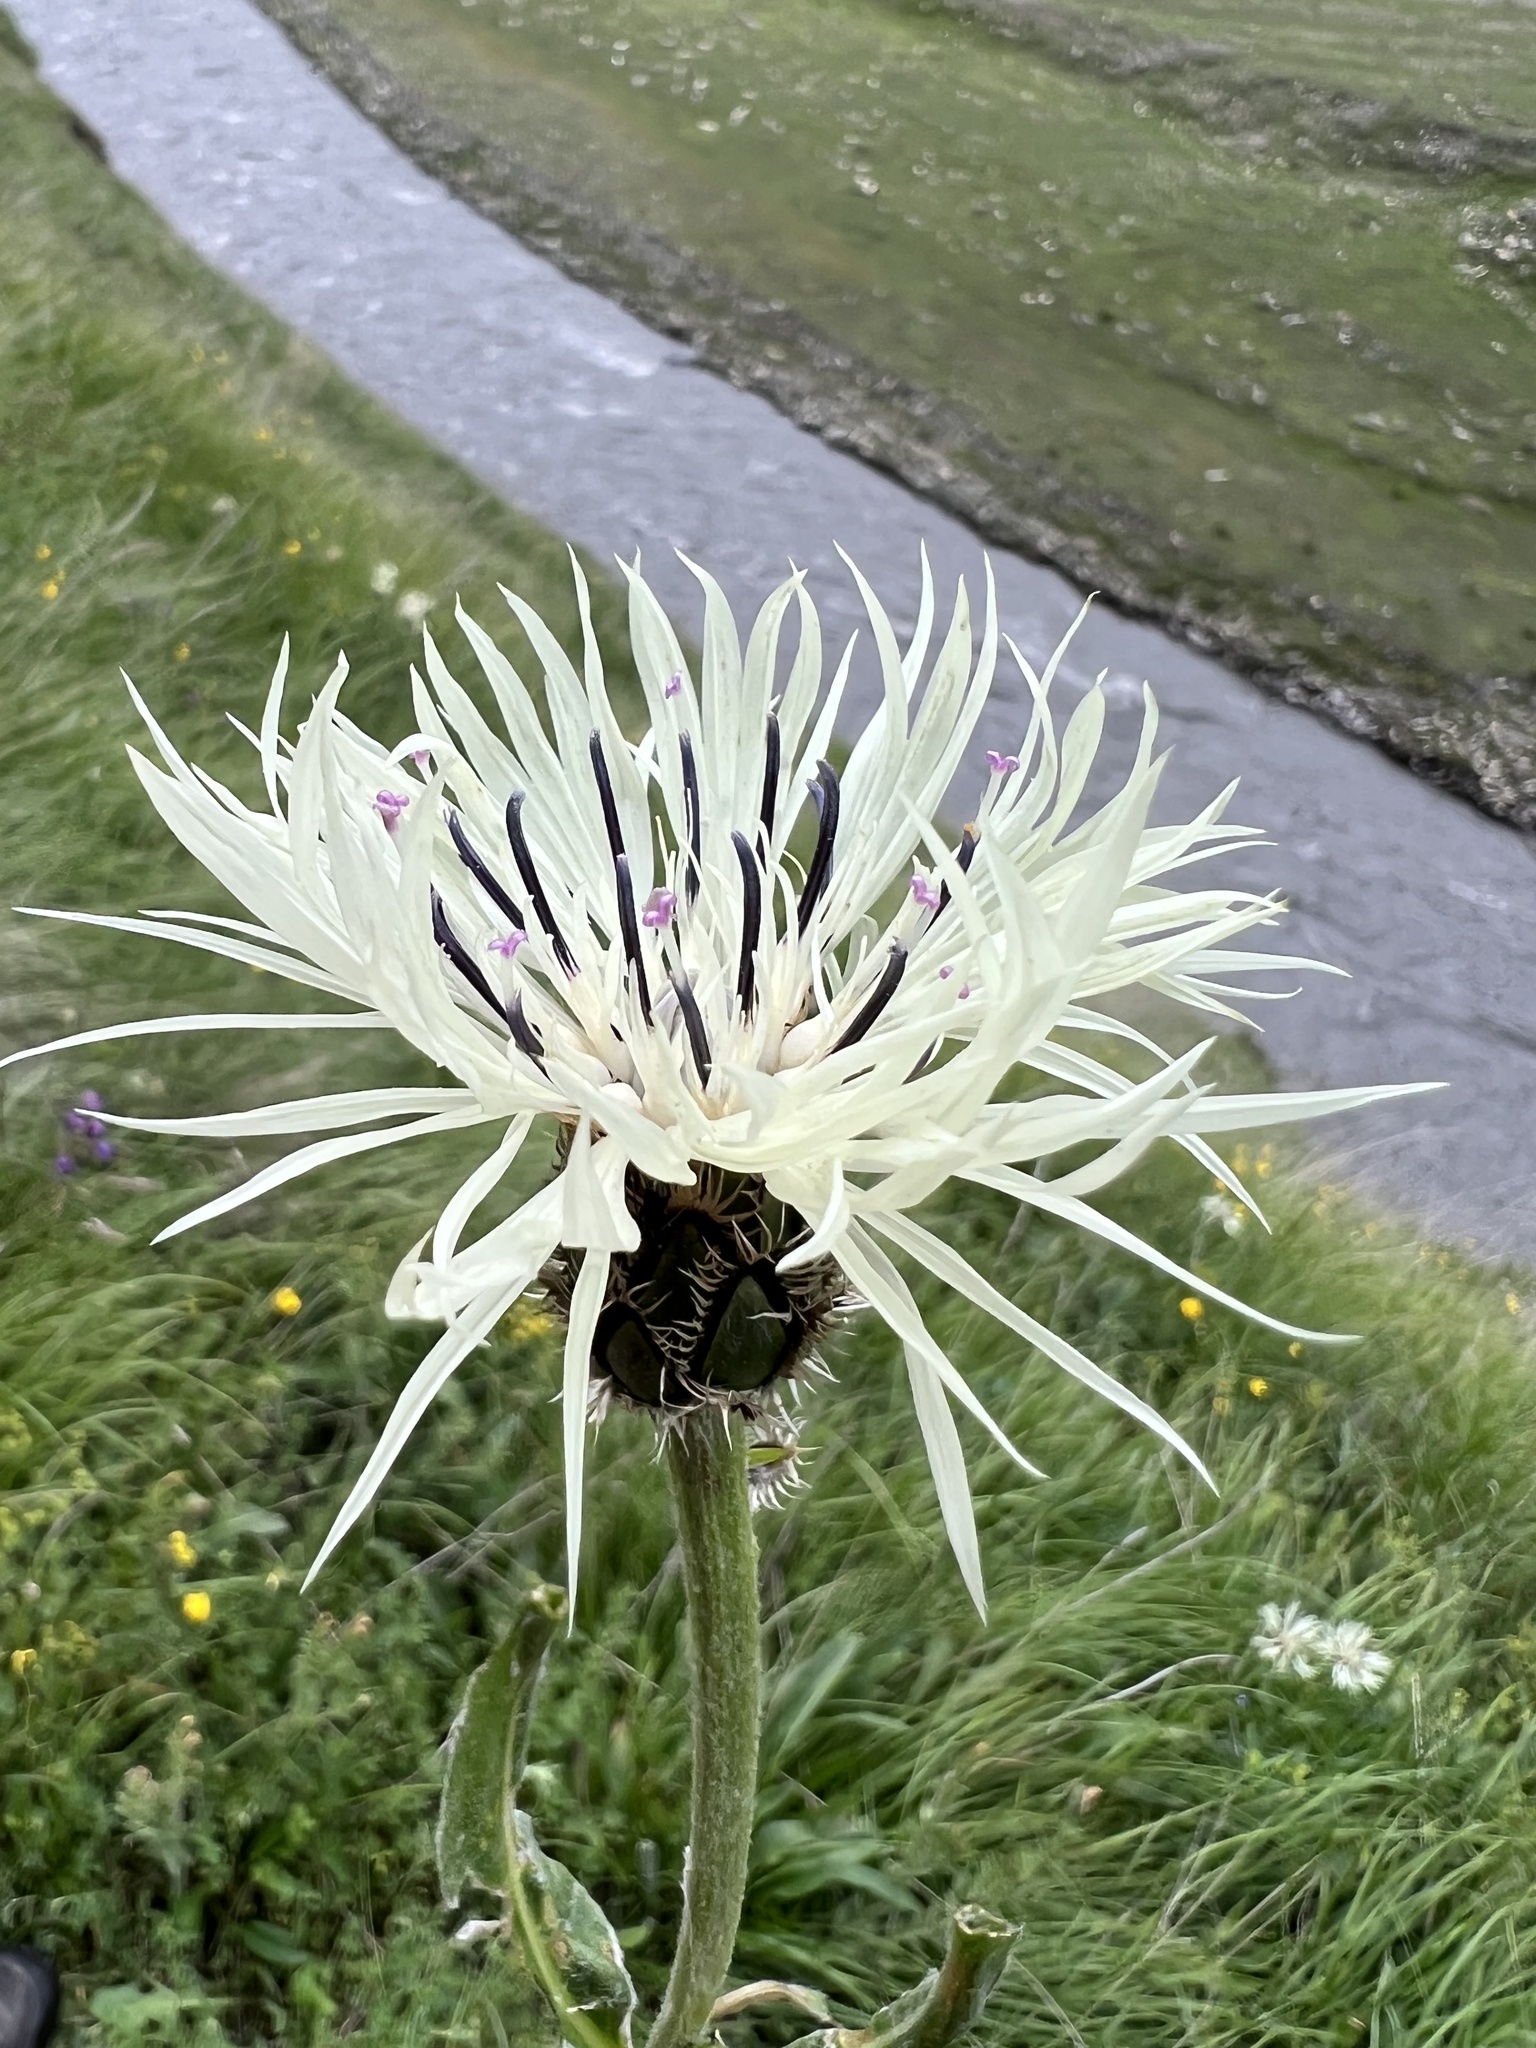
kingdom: Plantae
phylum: Tracheophyta
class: Magnoliopsida
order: Asterales
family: Asteraceae
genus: Centaurea
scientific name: Centaurea cheiranthifolia
